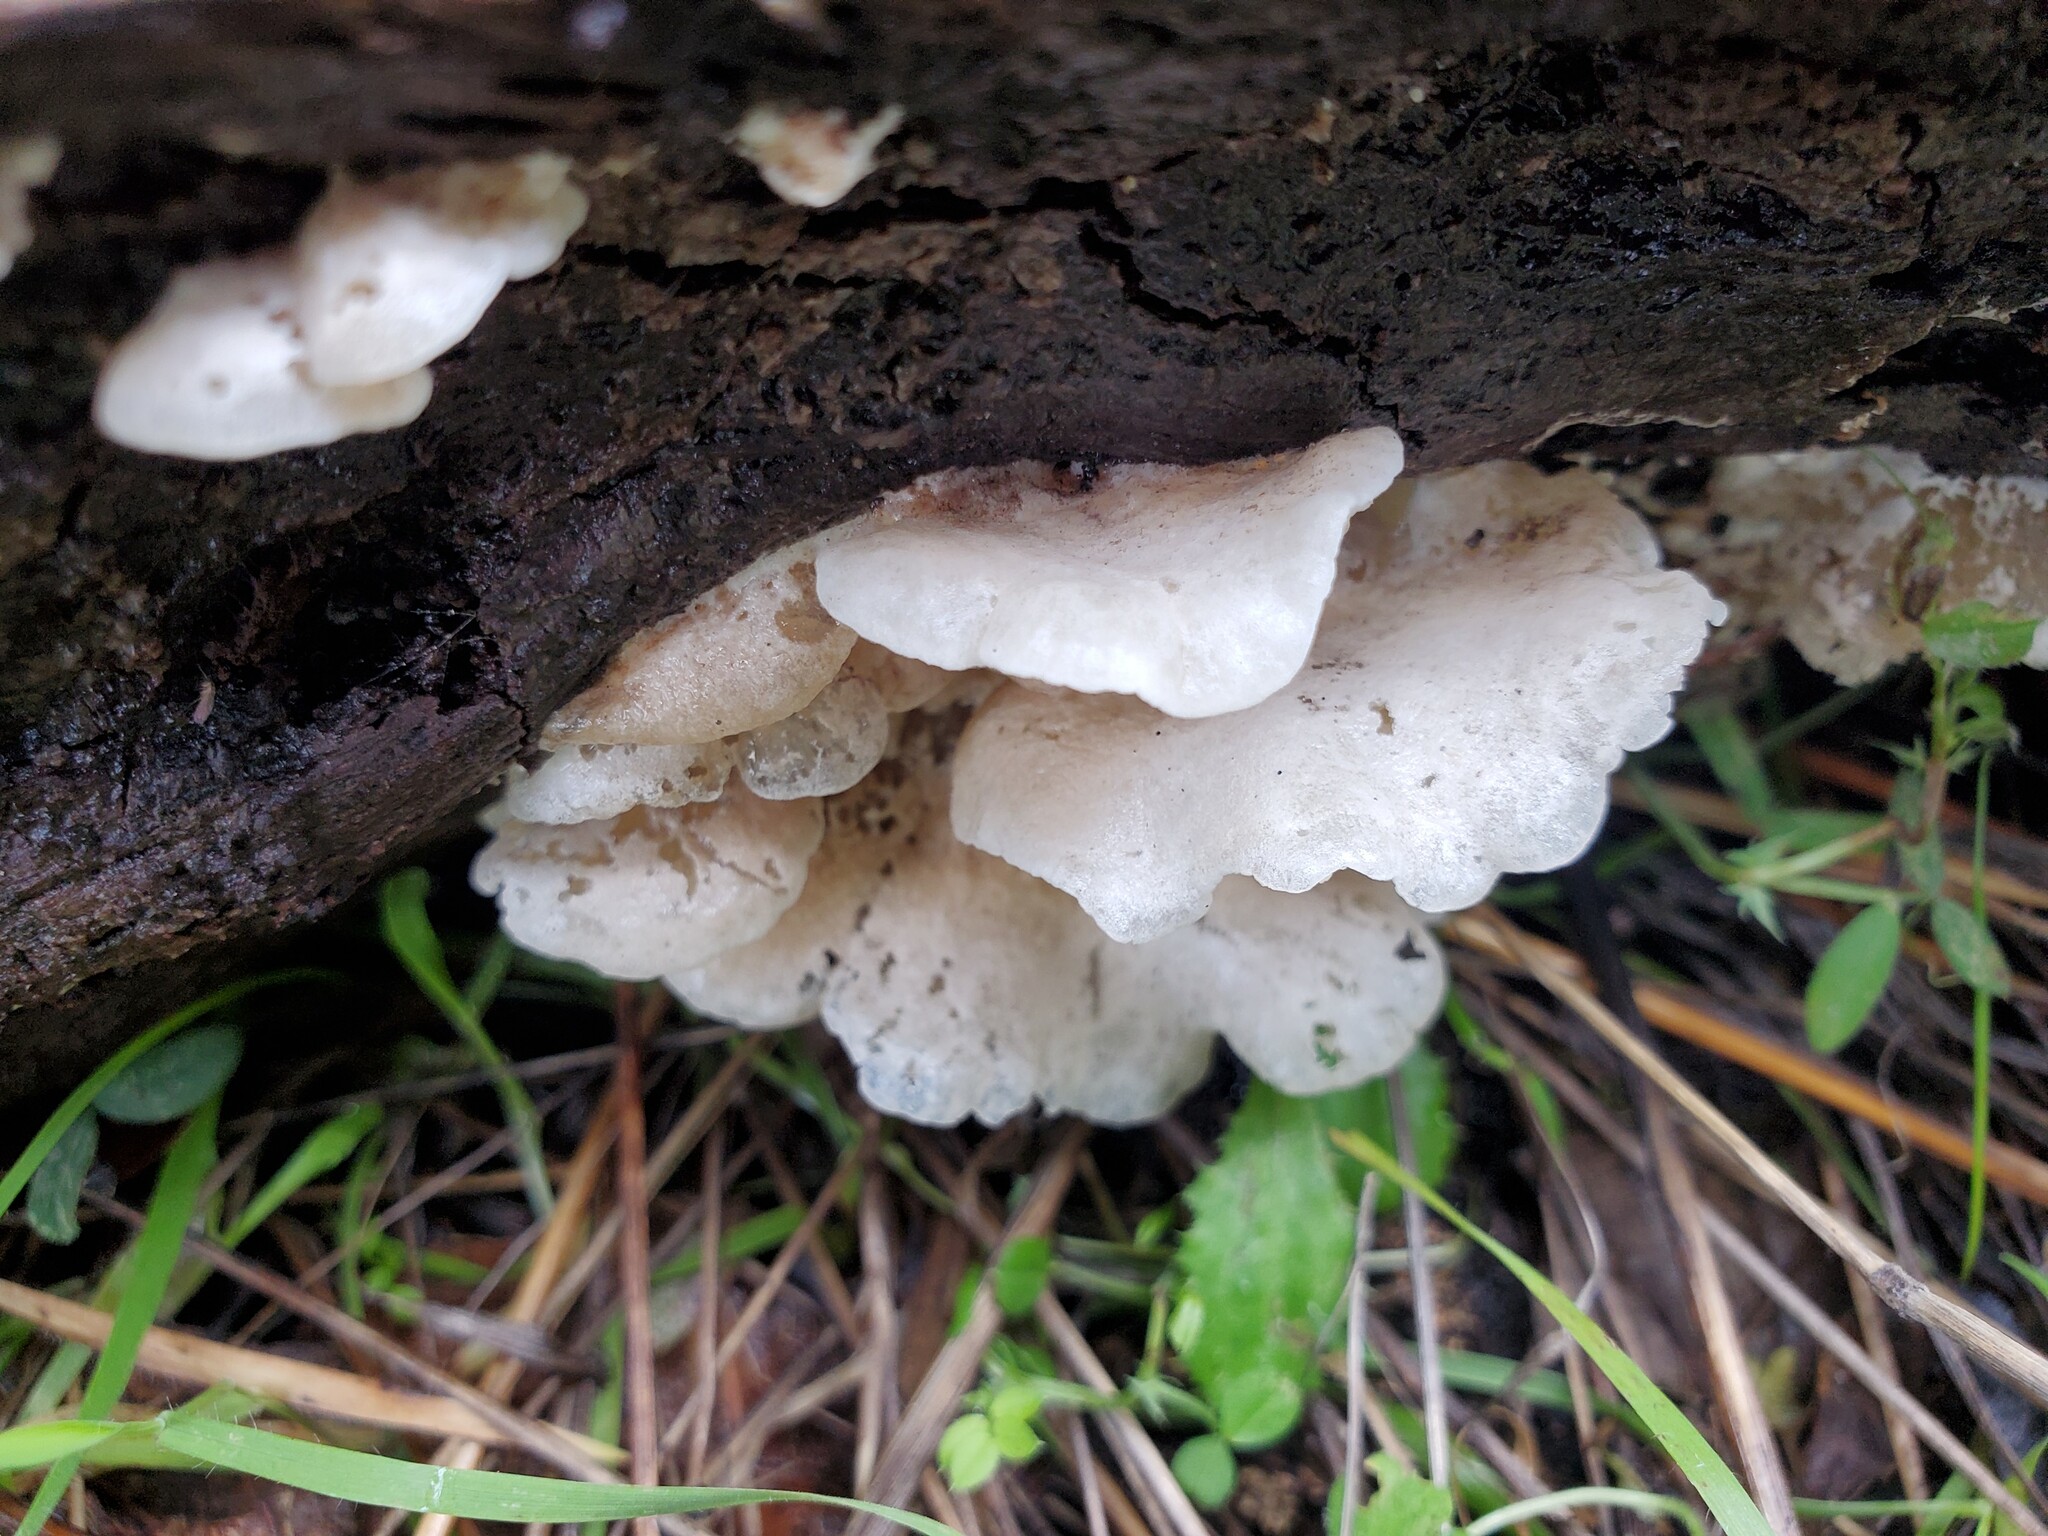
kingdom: Fungi
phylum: Basidiomycota
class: Agaricomycetes
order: Agaricales
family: Entolomataceae
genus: Clitopilus
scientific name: Clitopilus hobsonii
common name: Miller's oysterling
